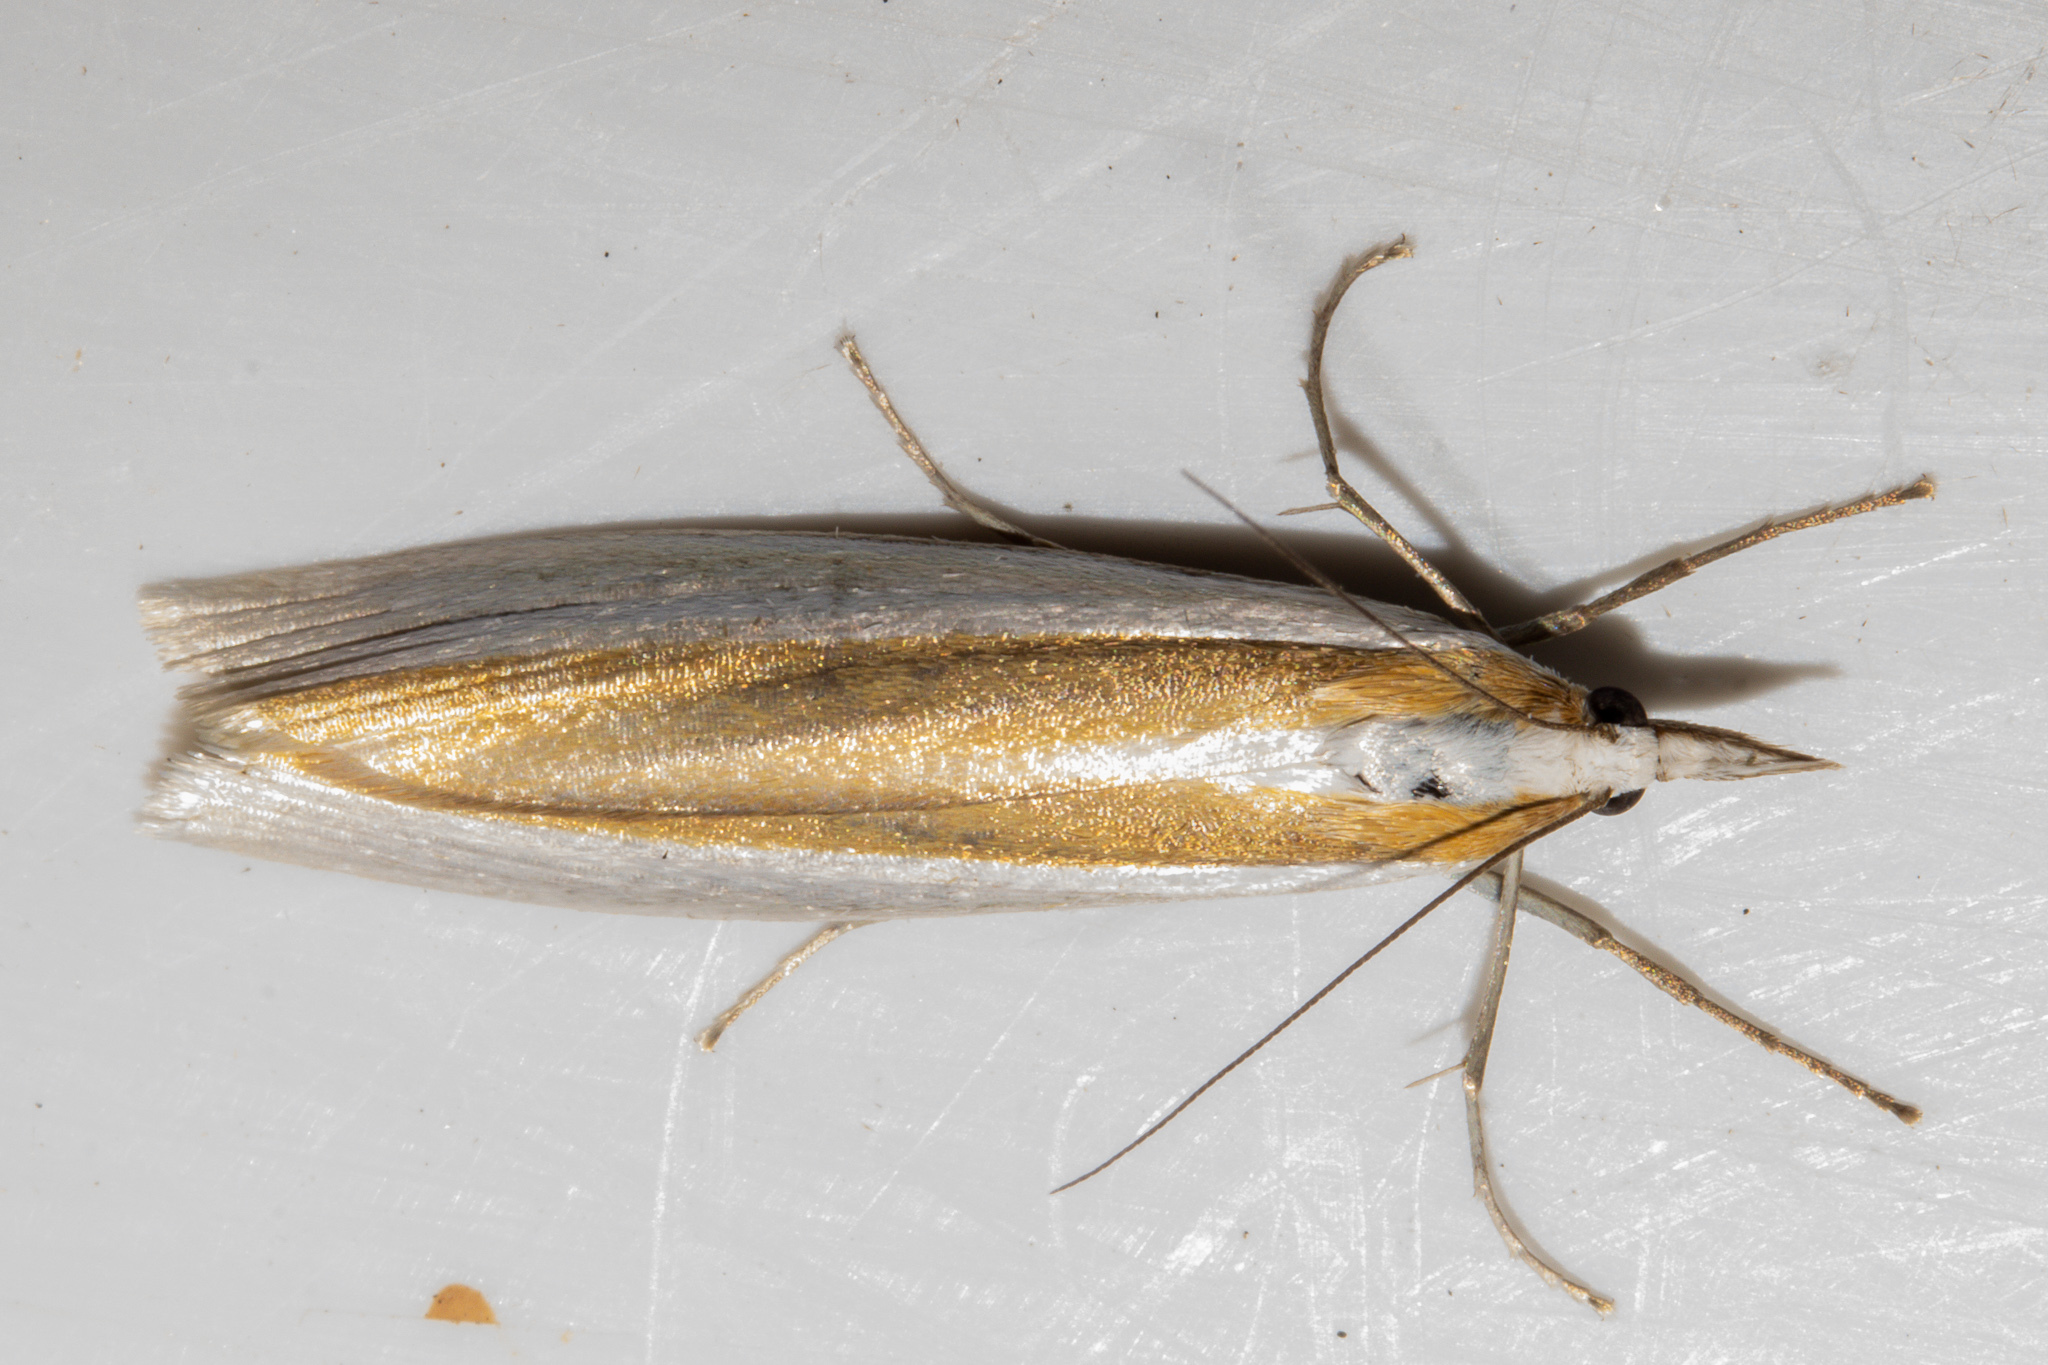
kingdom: Animalia
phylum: Arthropoda
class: Insecta
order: Lepidoptera
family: Crambidae
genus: Orocrambus
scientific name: Orocrambus ephorus
